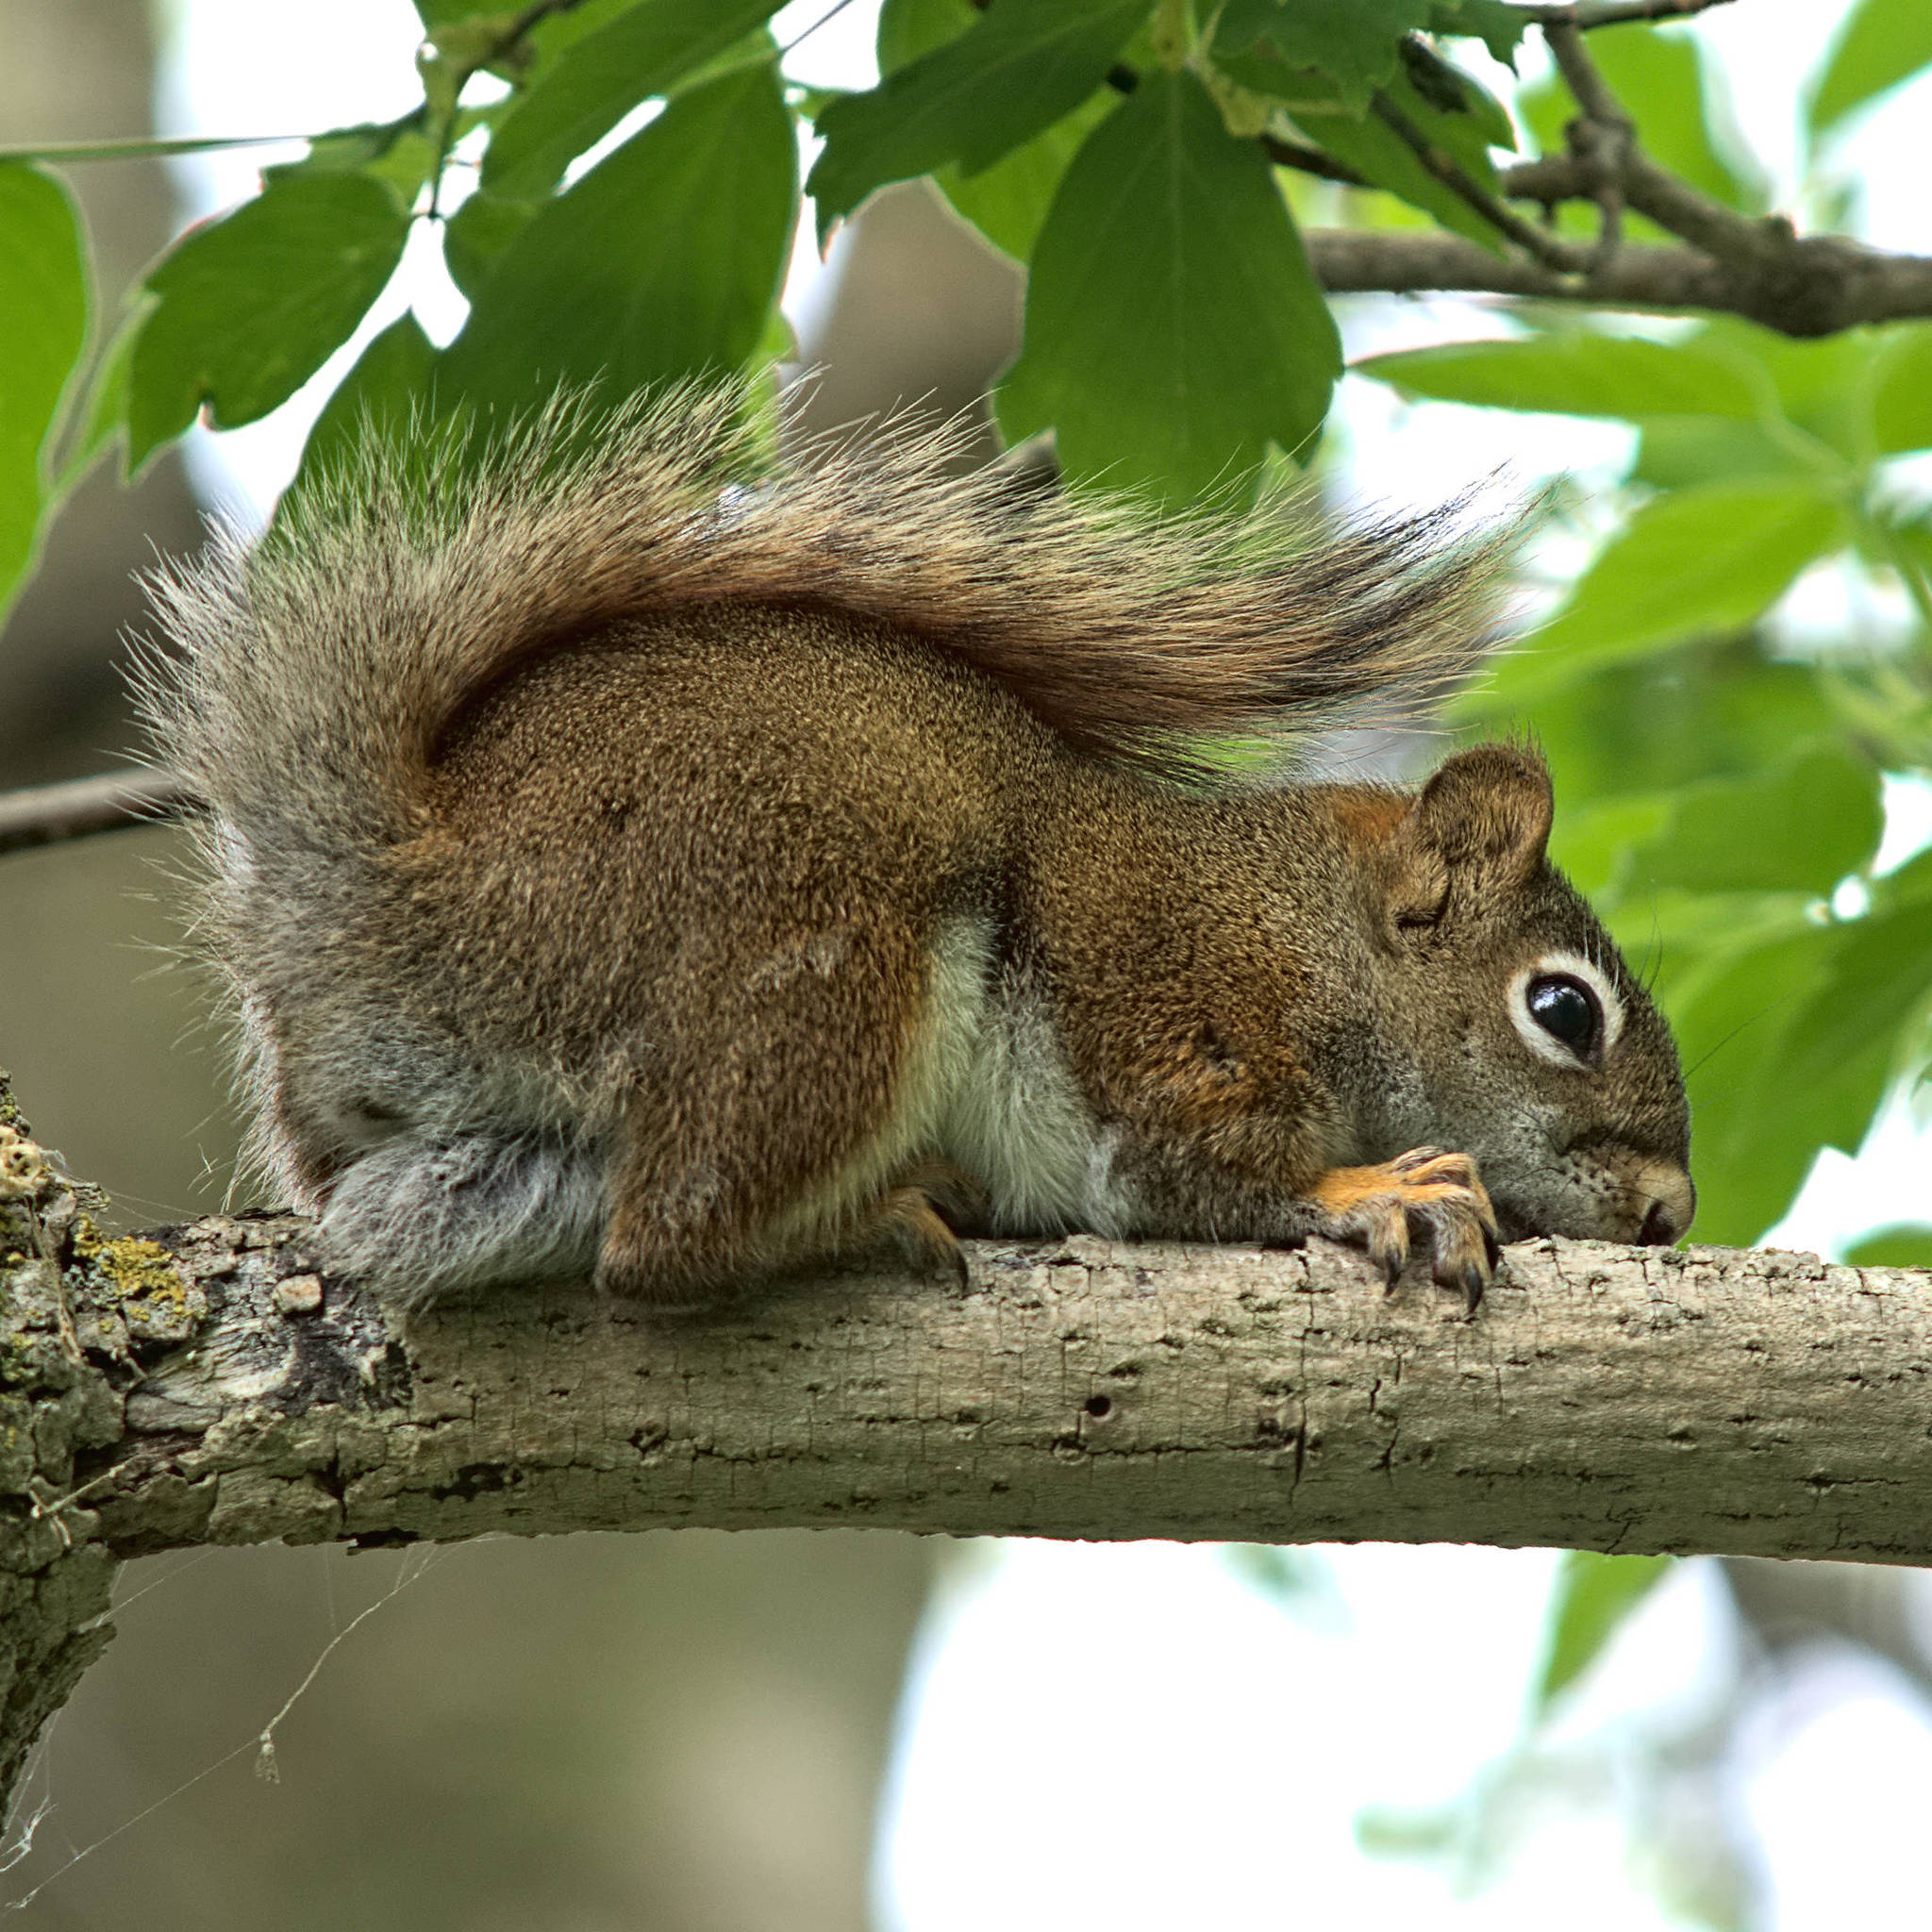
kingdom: Animalia
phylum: Chordata
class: Mammalia
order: Rodentia
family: Sciuridae
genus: Tamiasciurus
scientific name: Tamiasciurus hudsonicus
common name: Red squirrel
